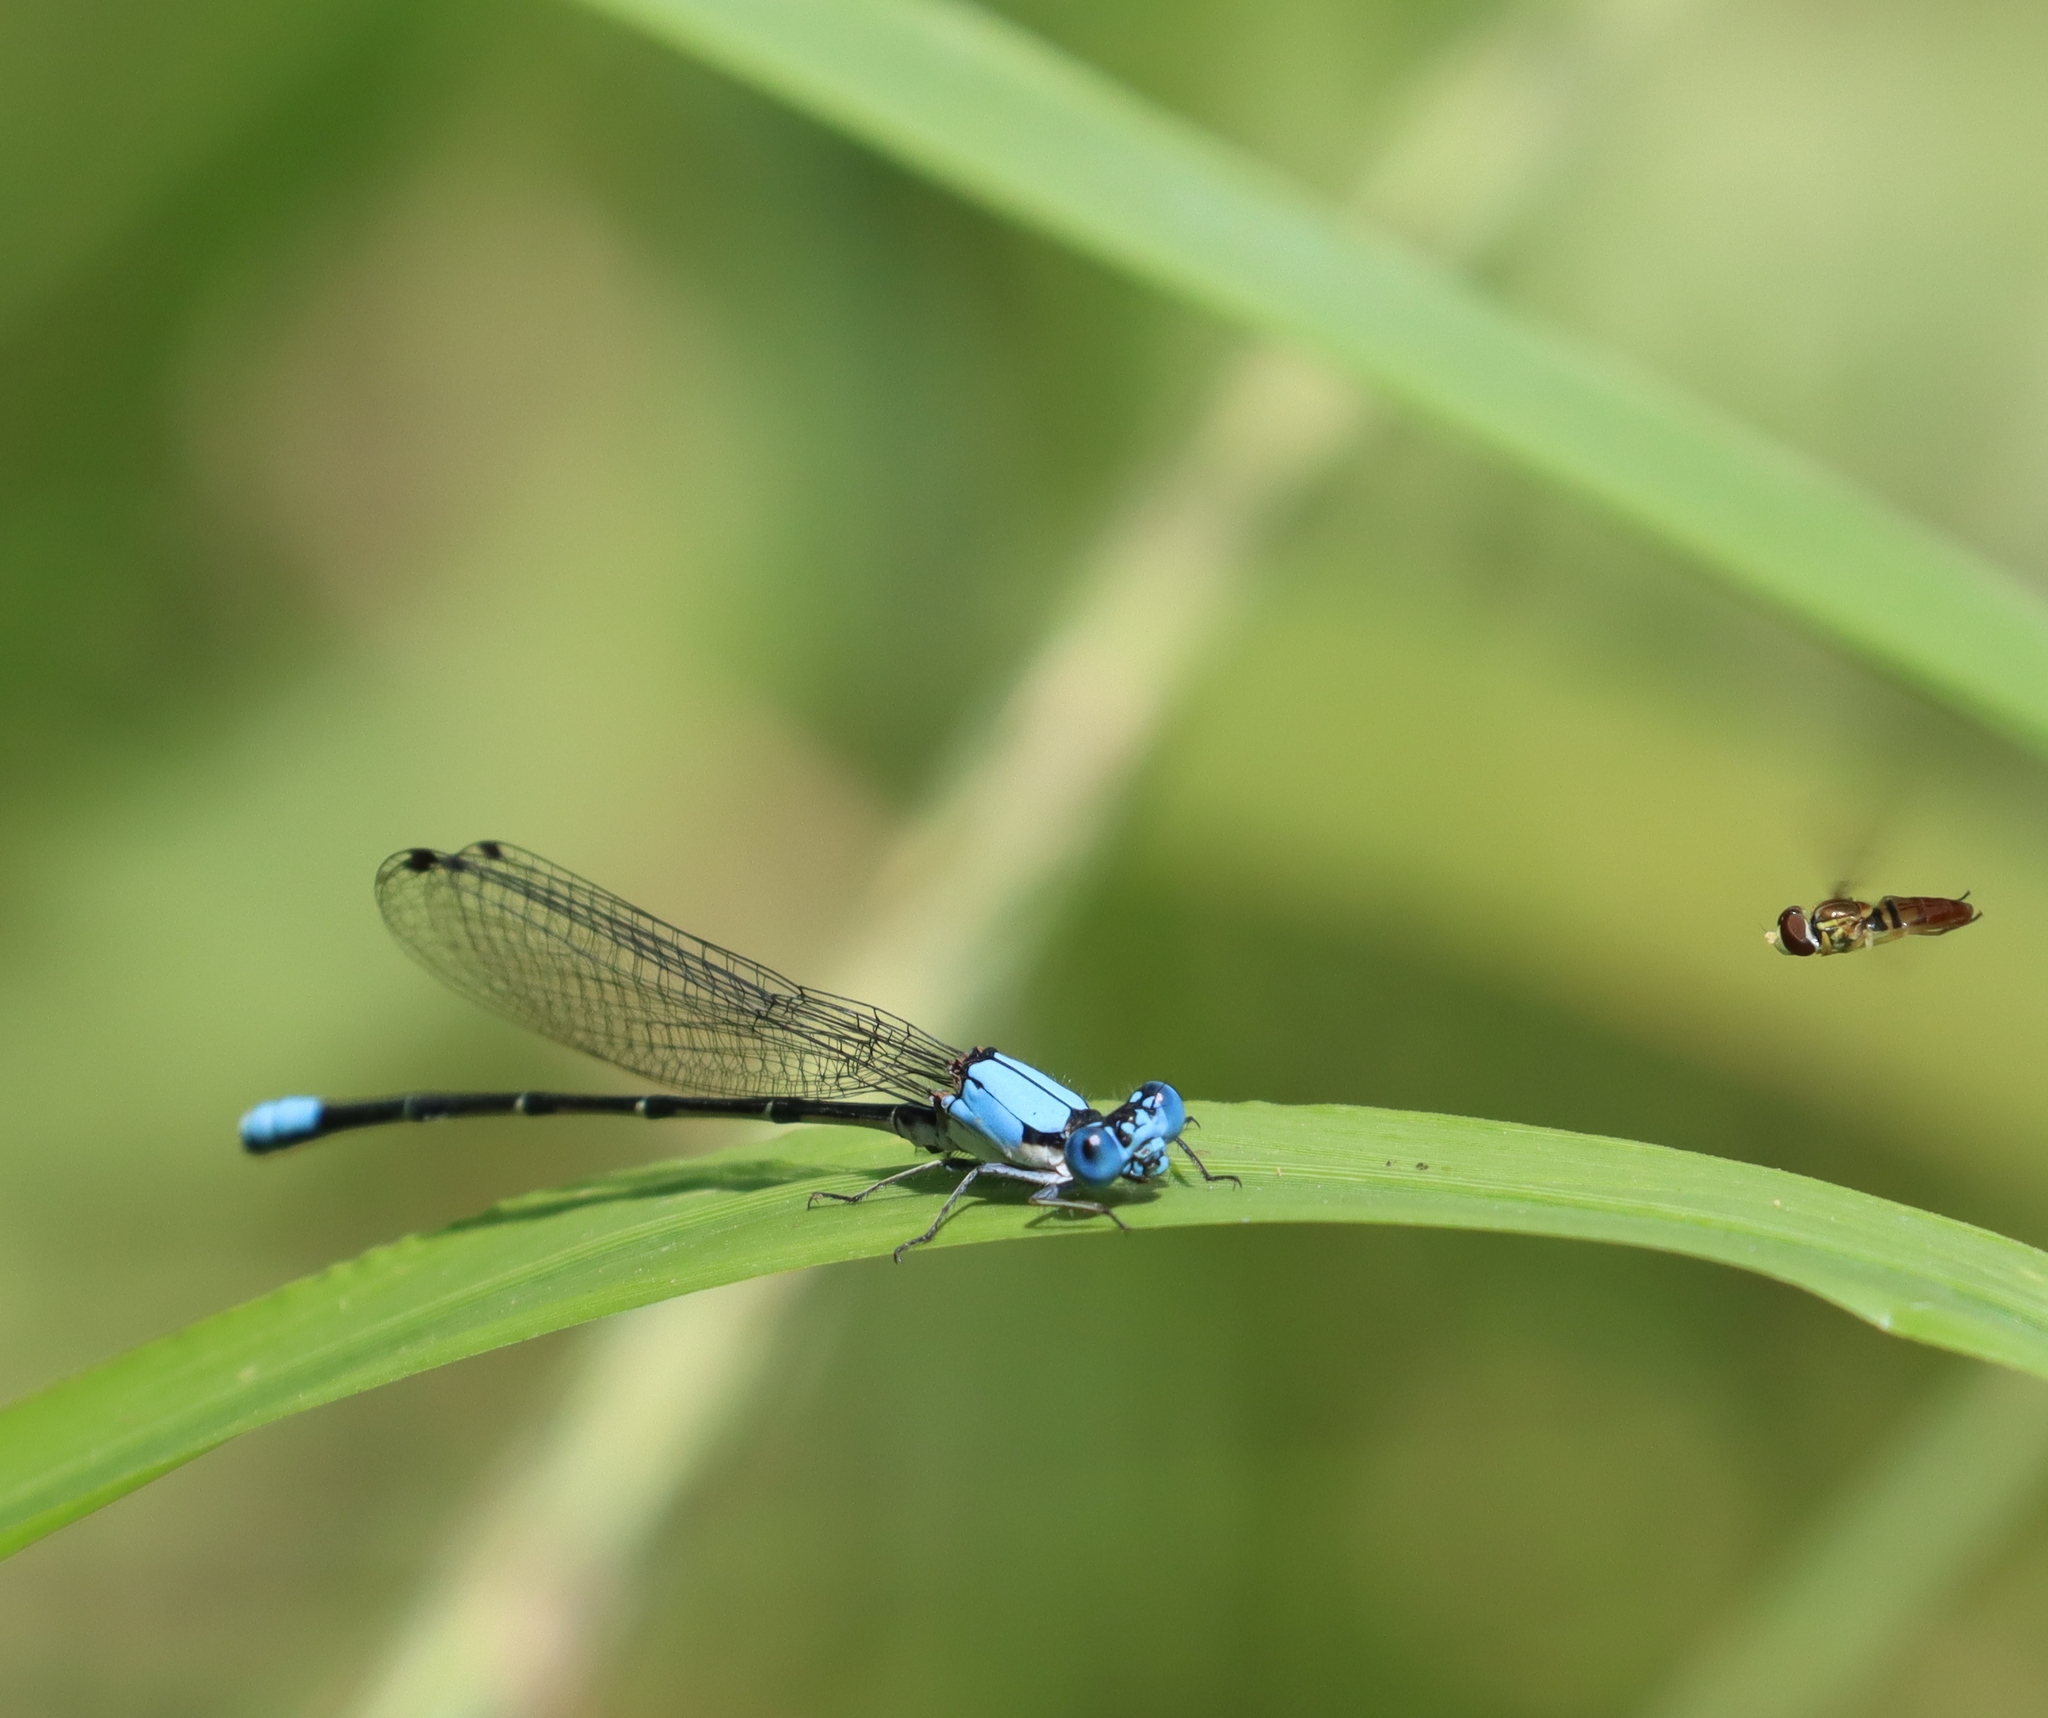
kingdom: Animalia
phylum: Arthropoda
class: Insecta
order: Odonata
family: Coenagrionidae
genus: Argia
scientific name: Argia apicalis
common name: Blue-fronted dancer
